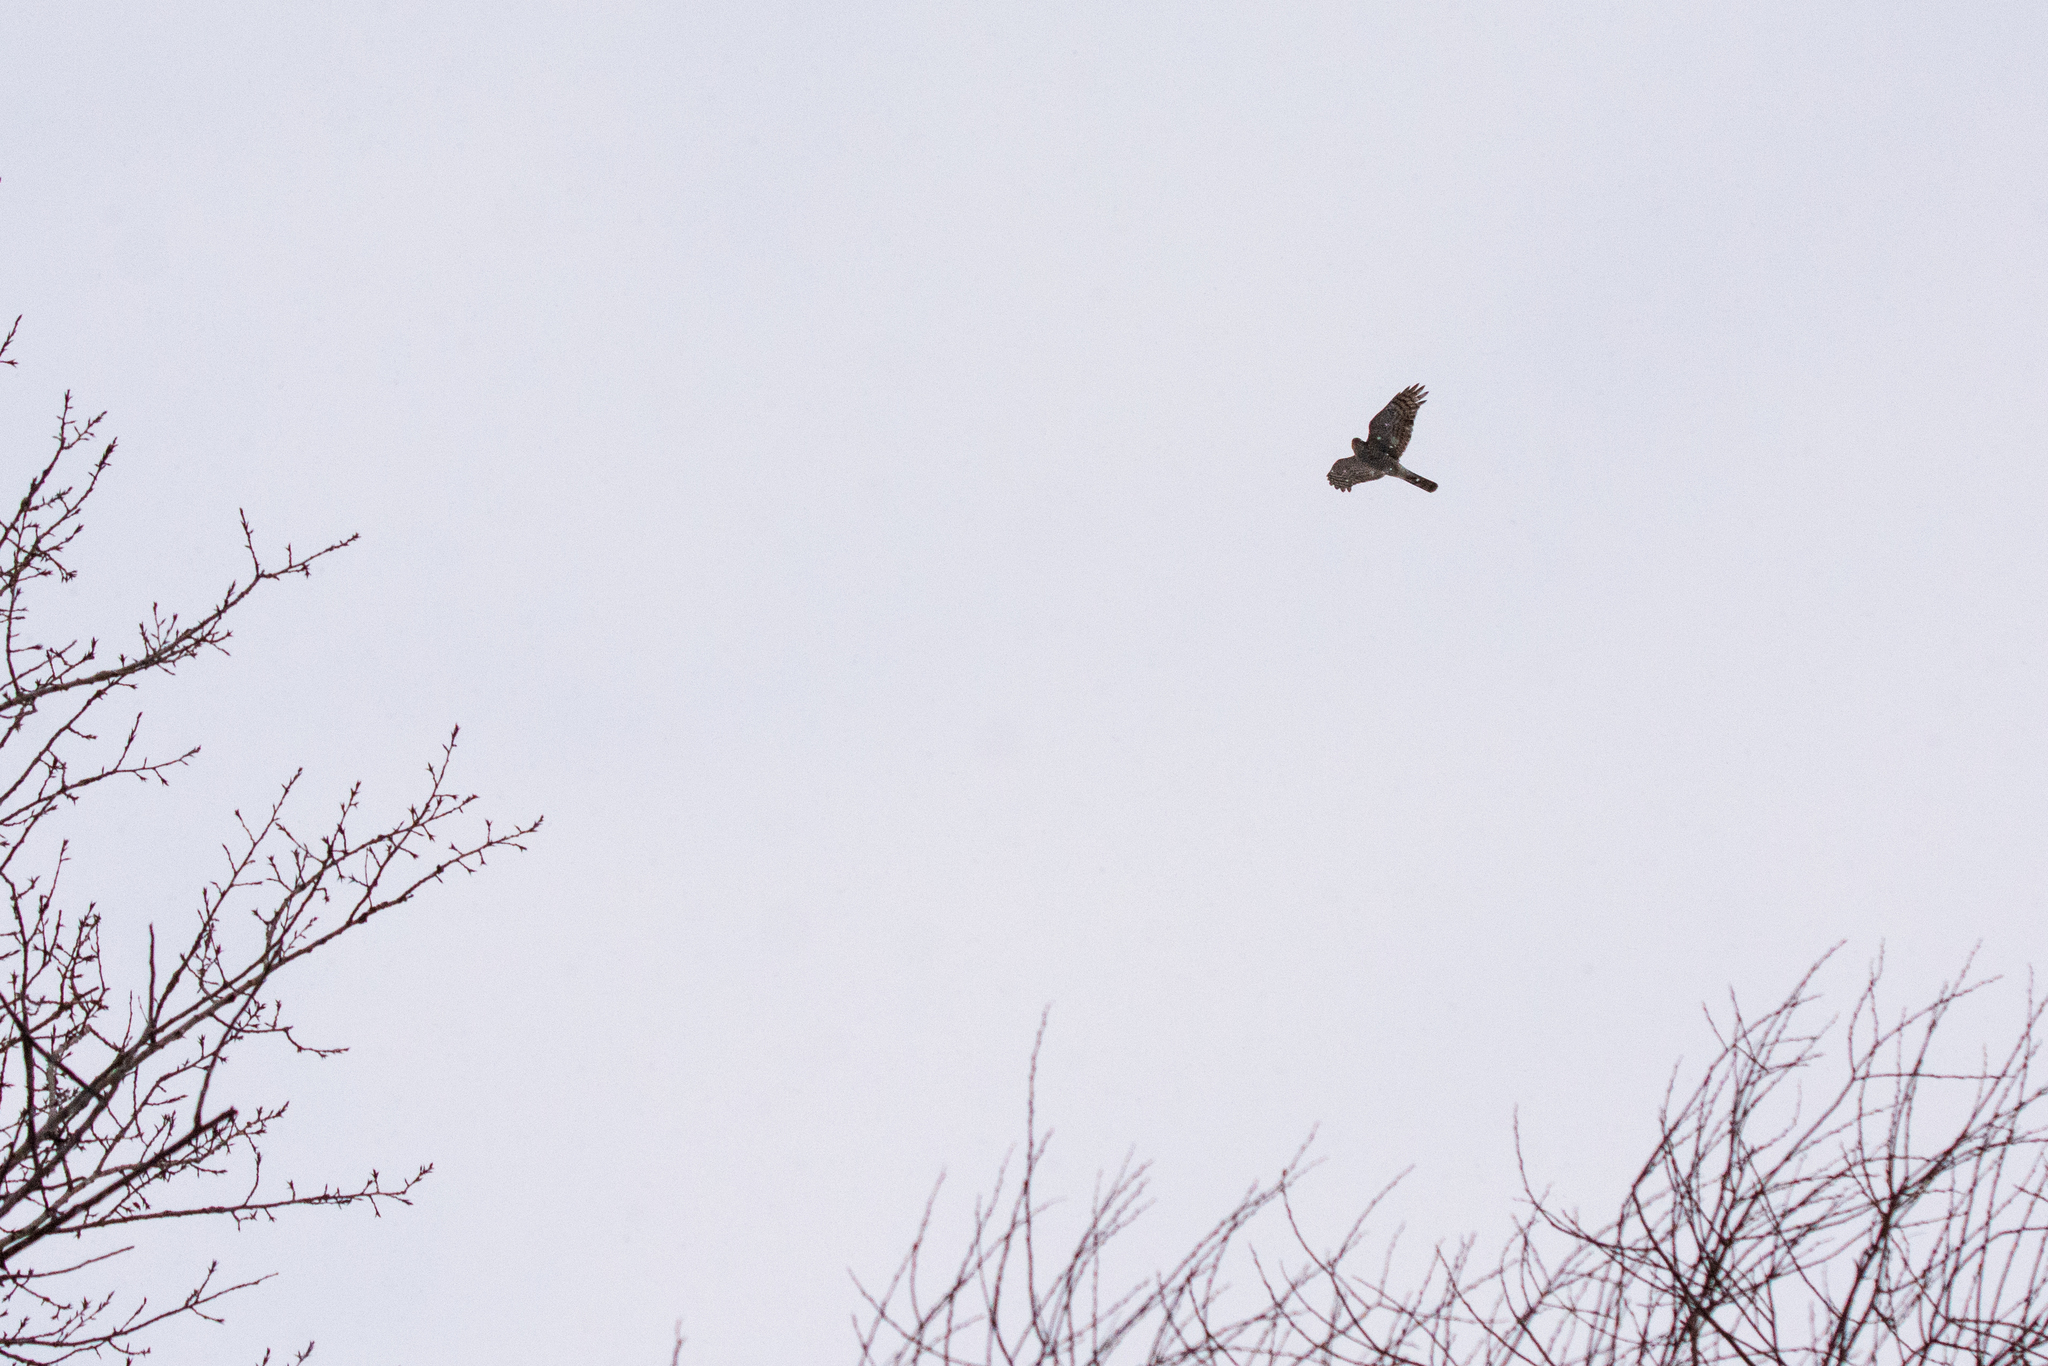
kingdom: Animalia
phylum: Chordata
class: Aves
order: Accipitriformes
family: Accipitridae
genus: Accipiter
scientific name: Accipiter nisus
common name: Eurasian sparrowhawk
